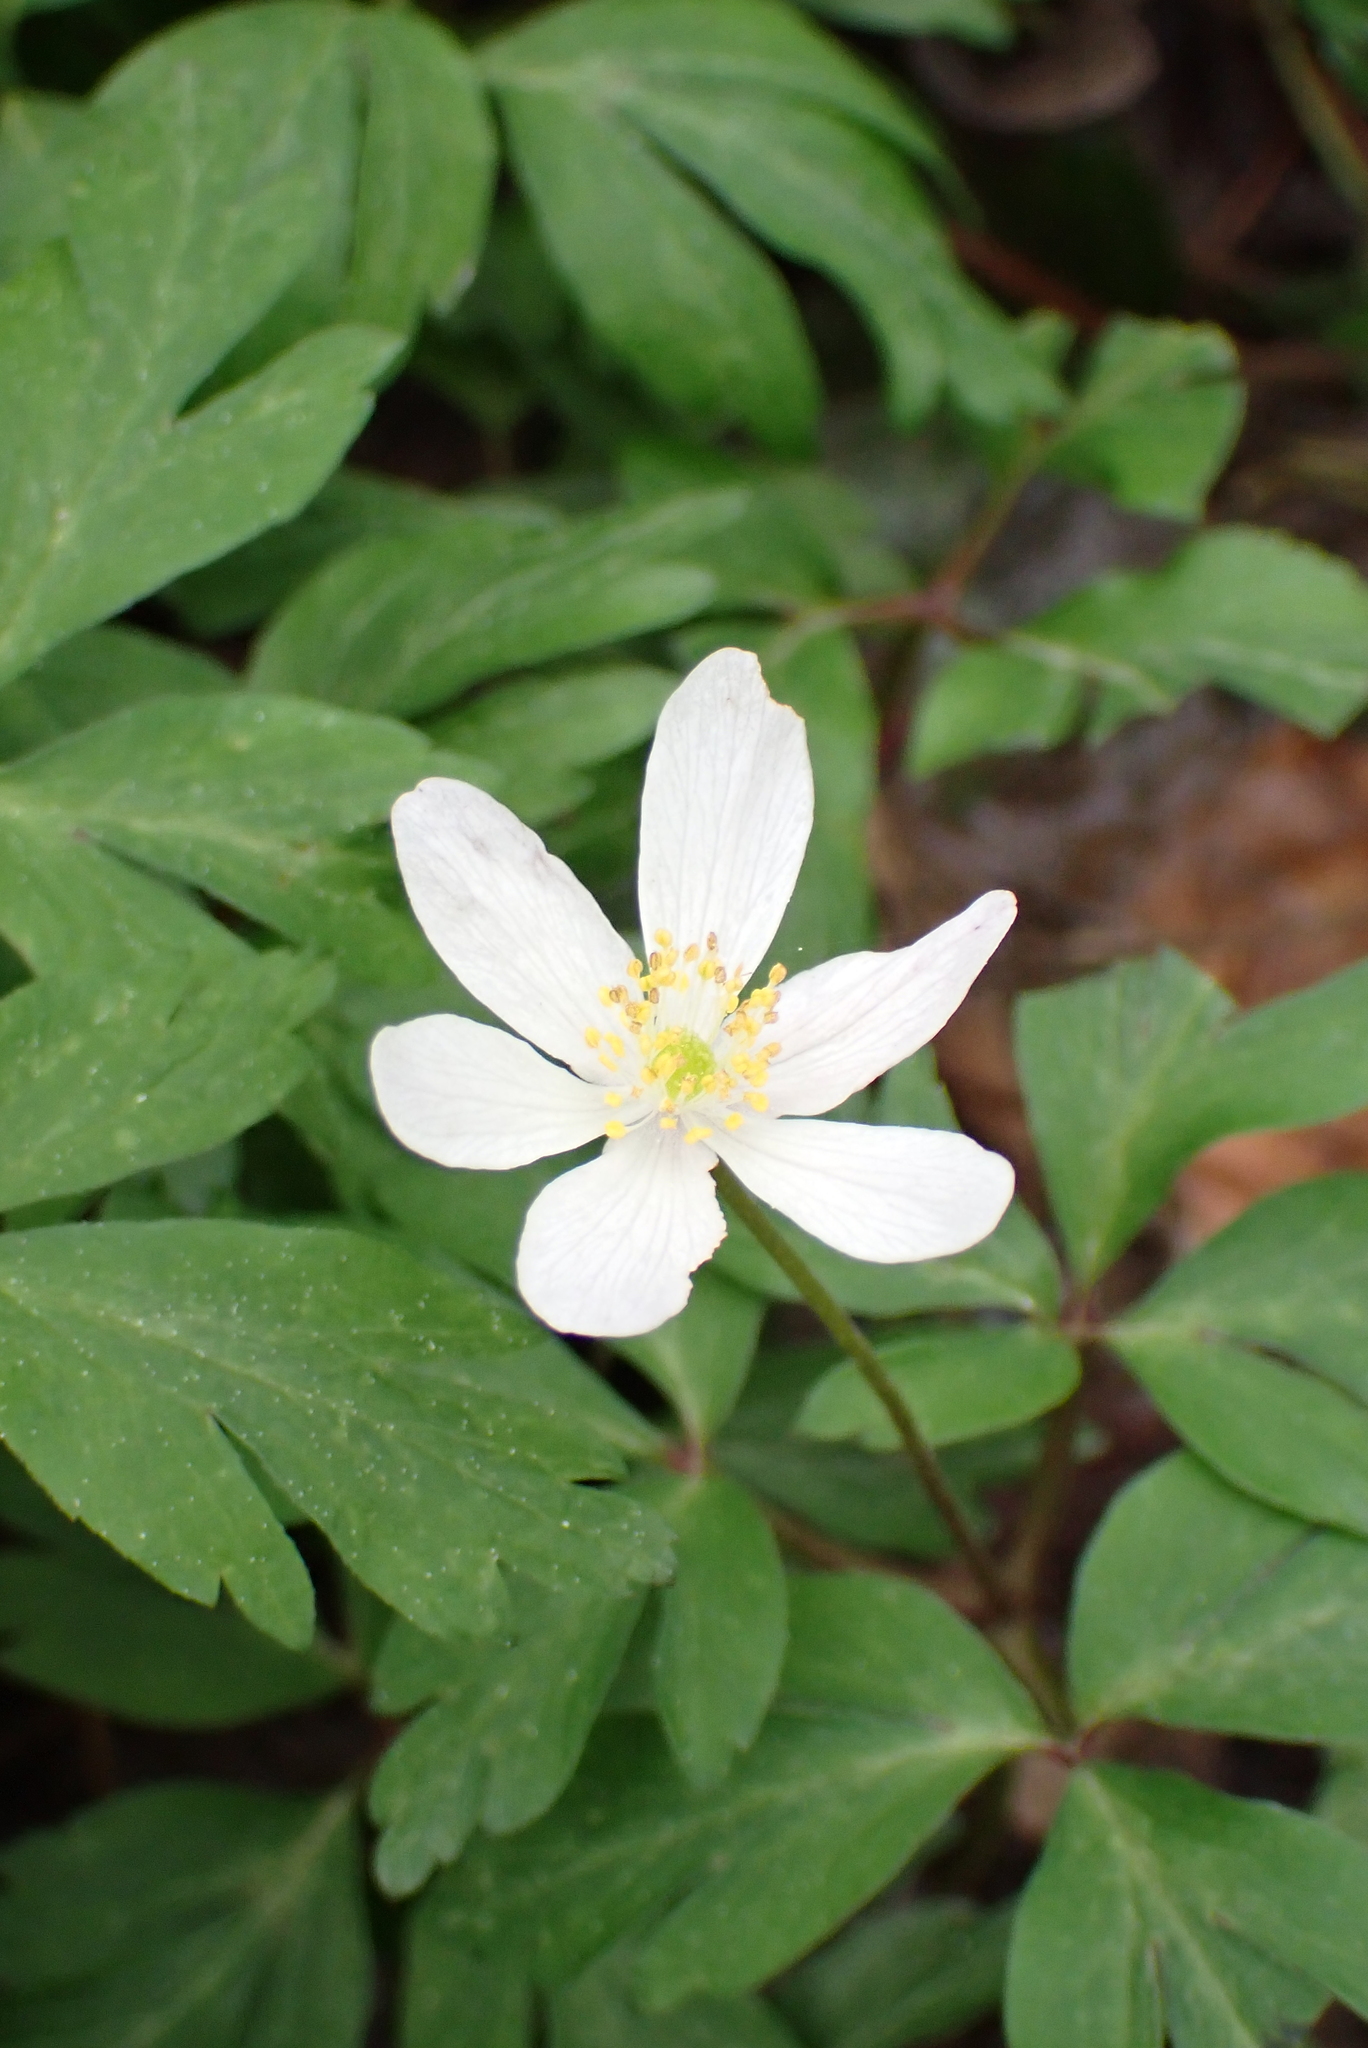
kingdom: Plantae
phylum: Tracheophyta
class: Magnoliopsida
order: Ranunculales
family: Ranunculaceae
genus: Anemone
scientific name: Anemone nemorosa
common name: Wood anemone
